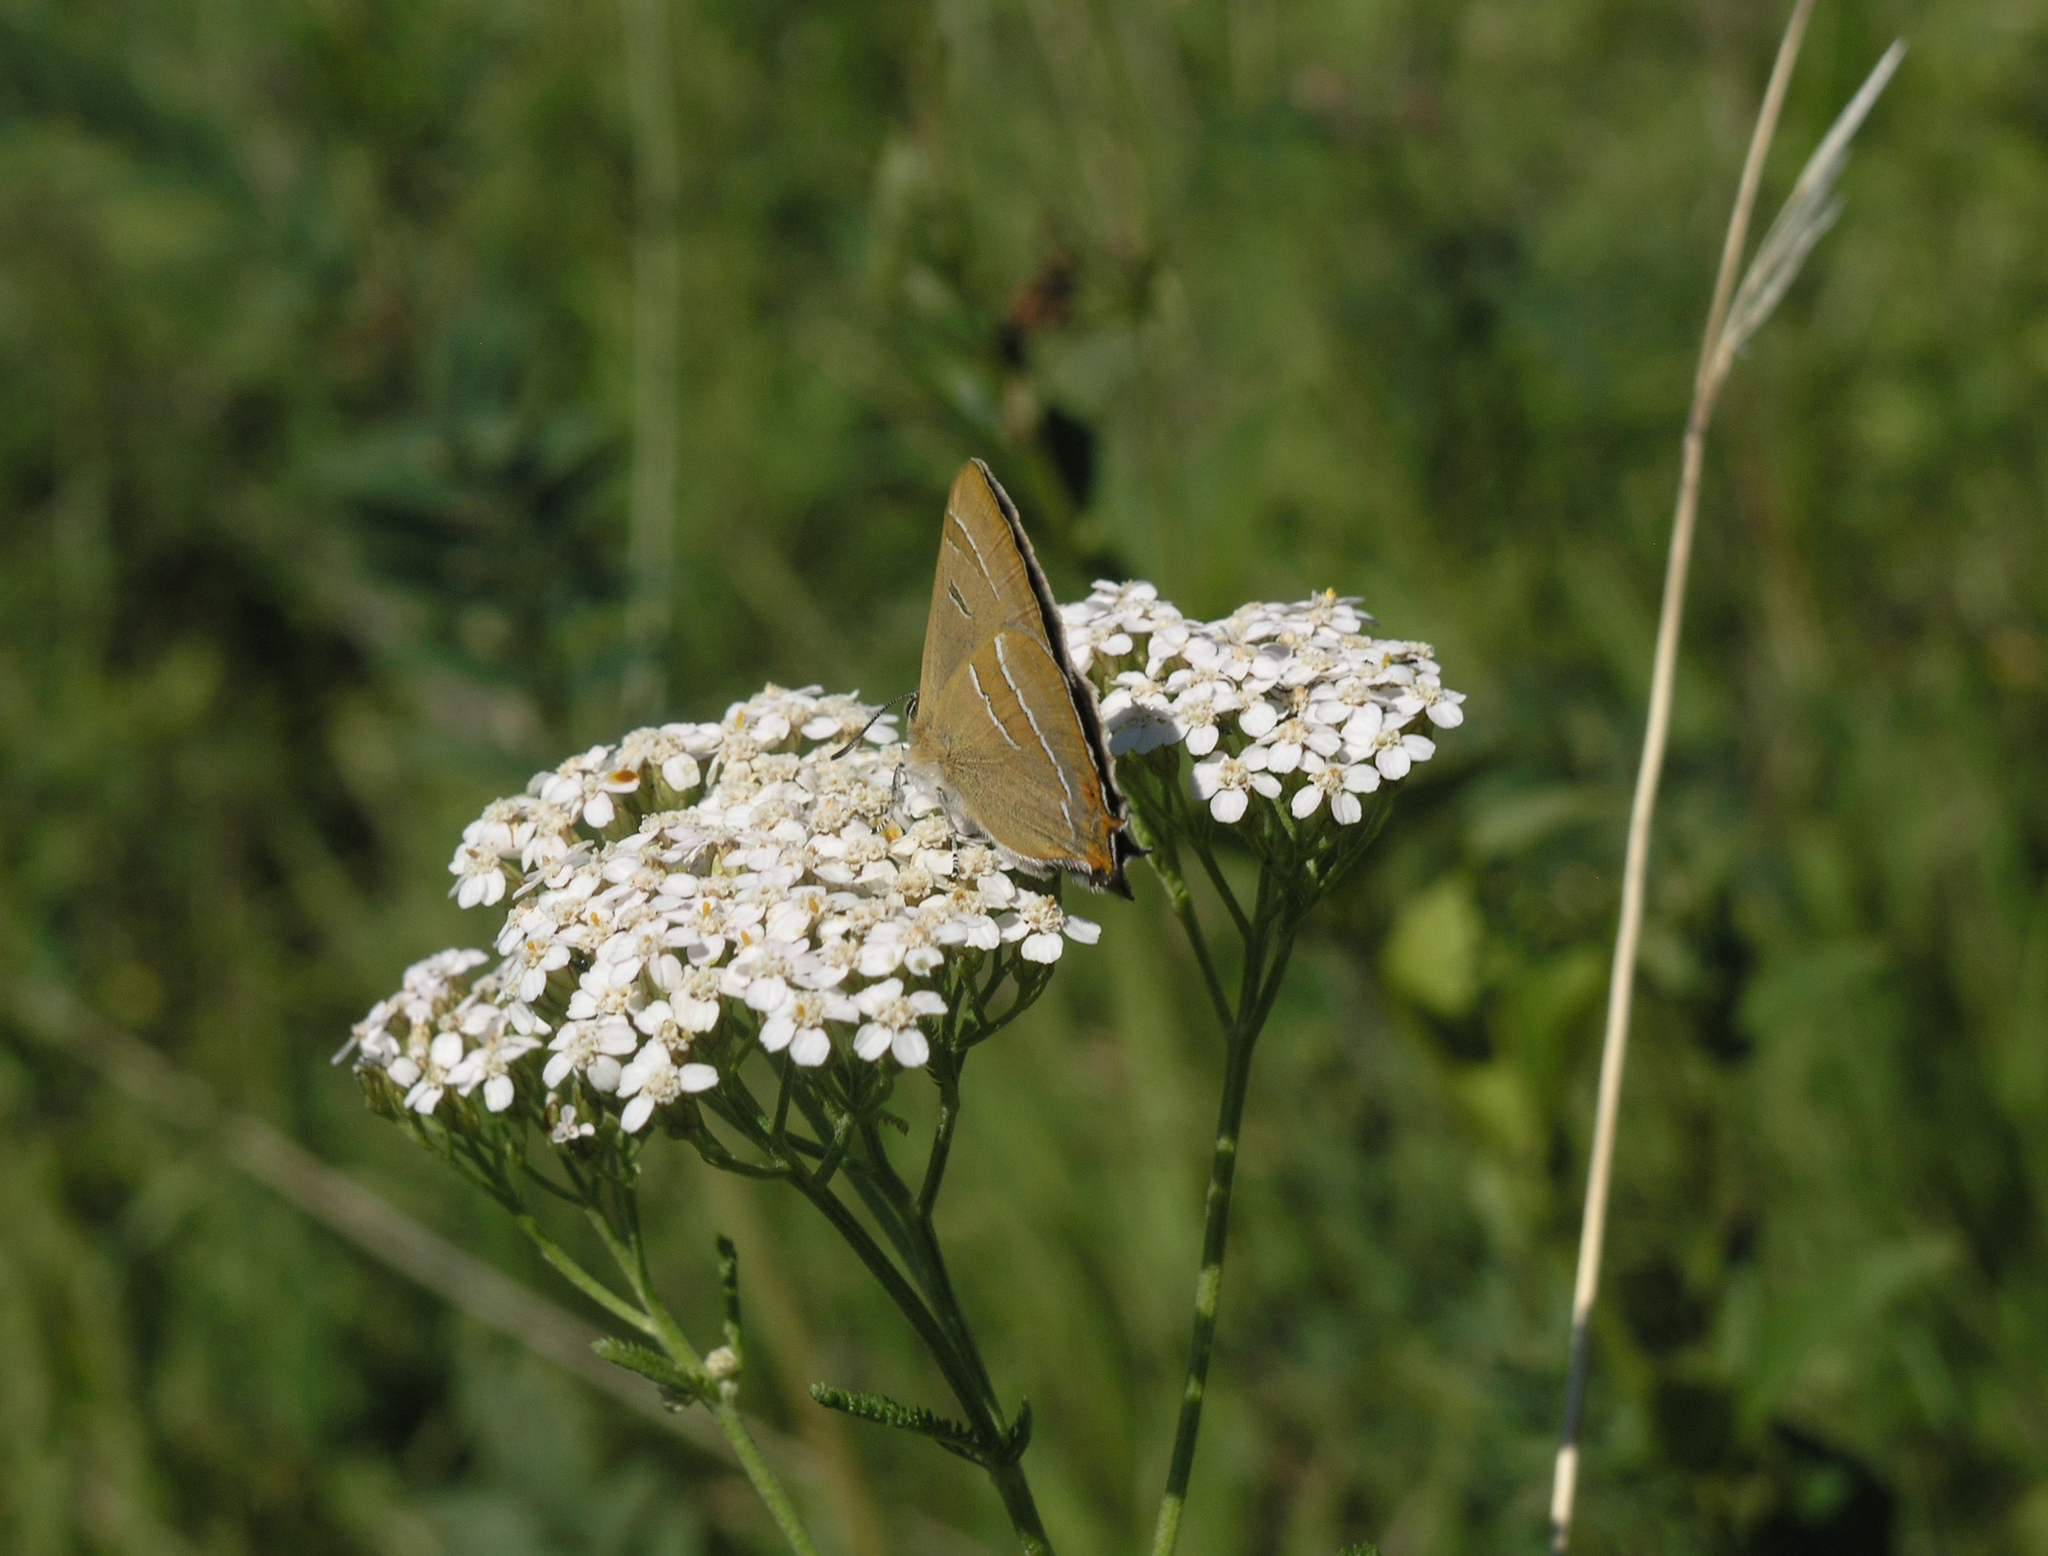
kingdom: Plantae
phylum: Tracheophyta
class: Magnoliopsida
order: Asterales
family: Asteraceae
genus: Achillea
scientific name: Achillea millefolium
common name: Yarrow
